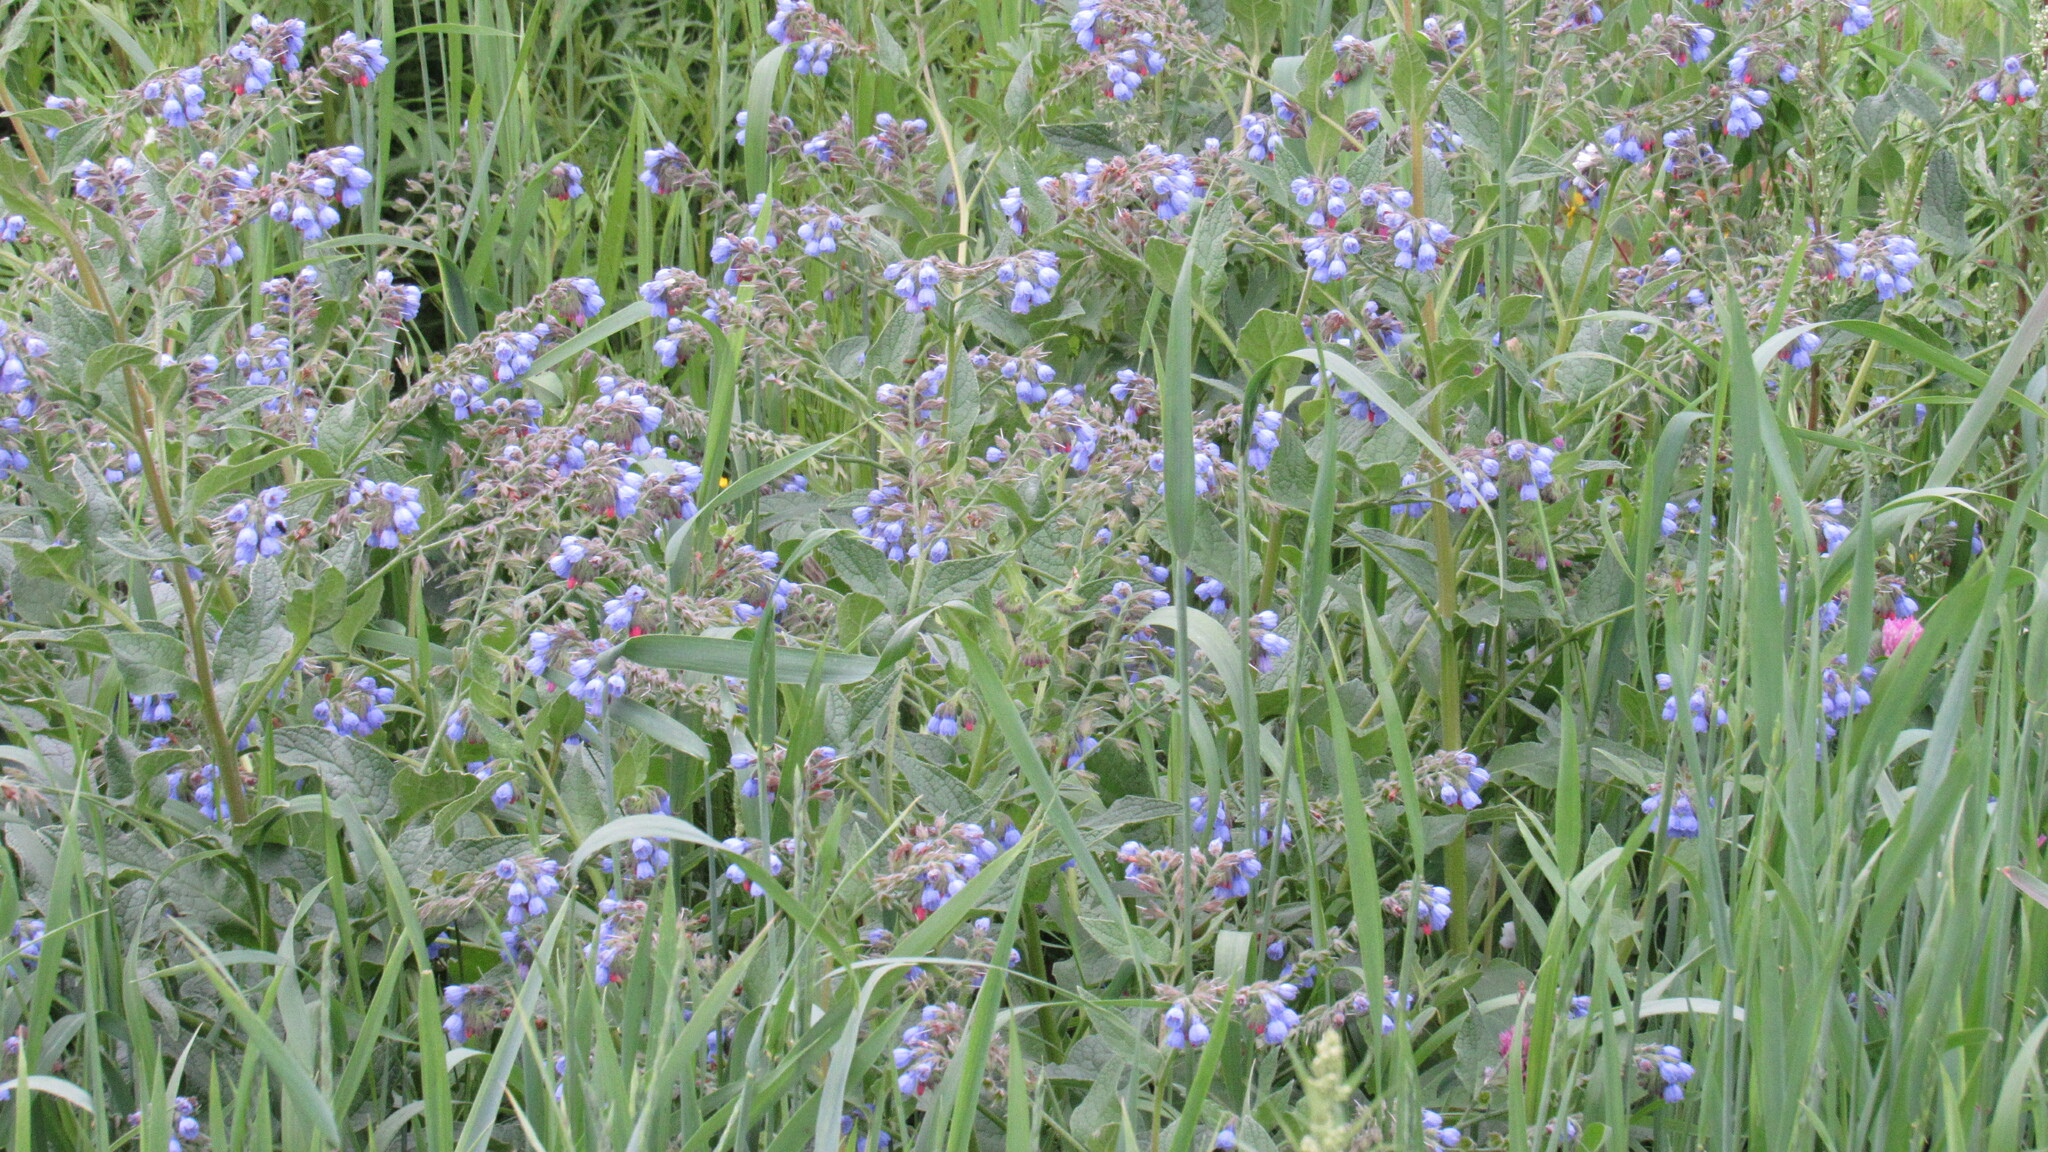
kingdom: Plantae
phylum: Tracheophyta
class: Magnoliopsida
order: Boraginales
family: Boraginaceae
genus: Symphytum
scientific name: Symphytum caucasicum
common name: Caucasian comfrey
